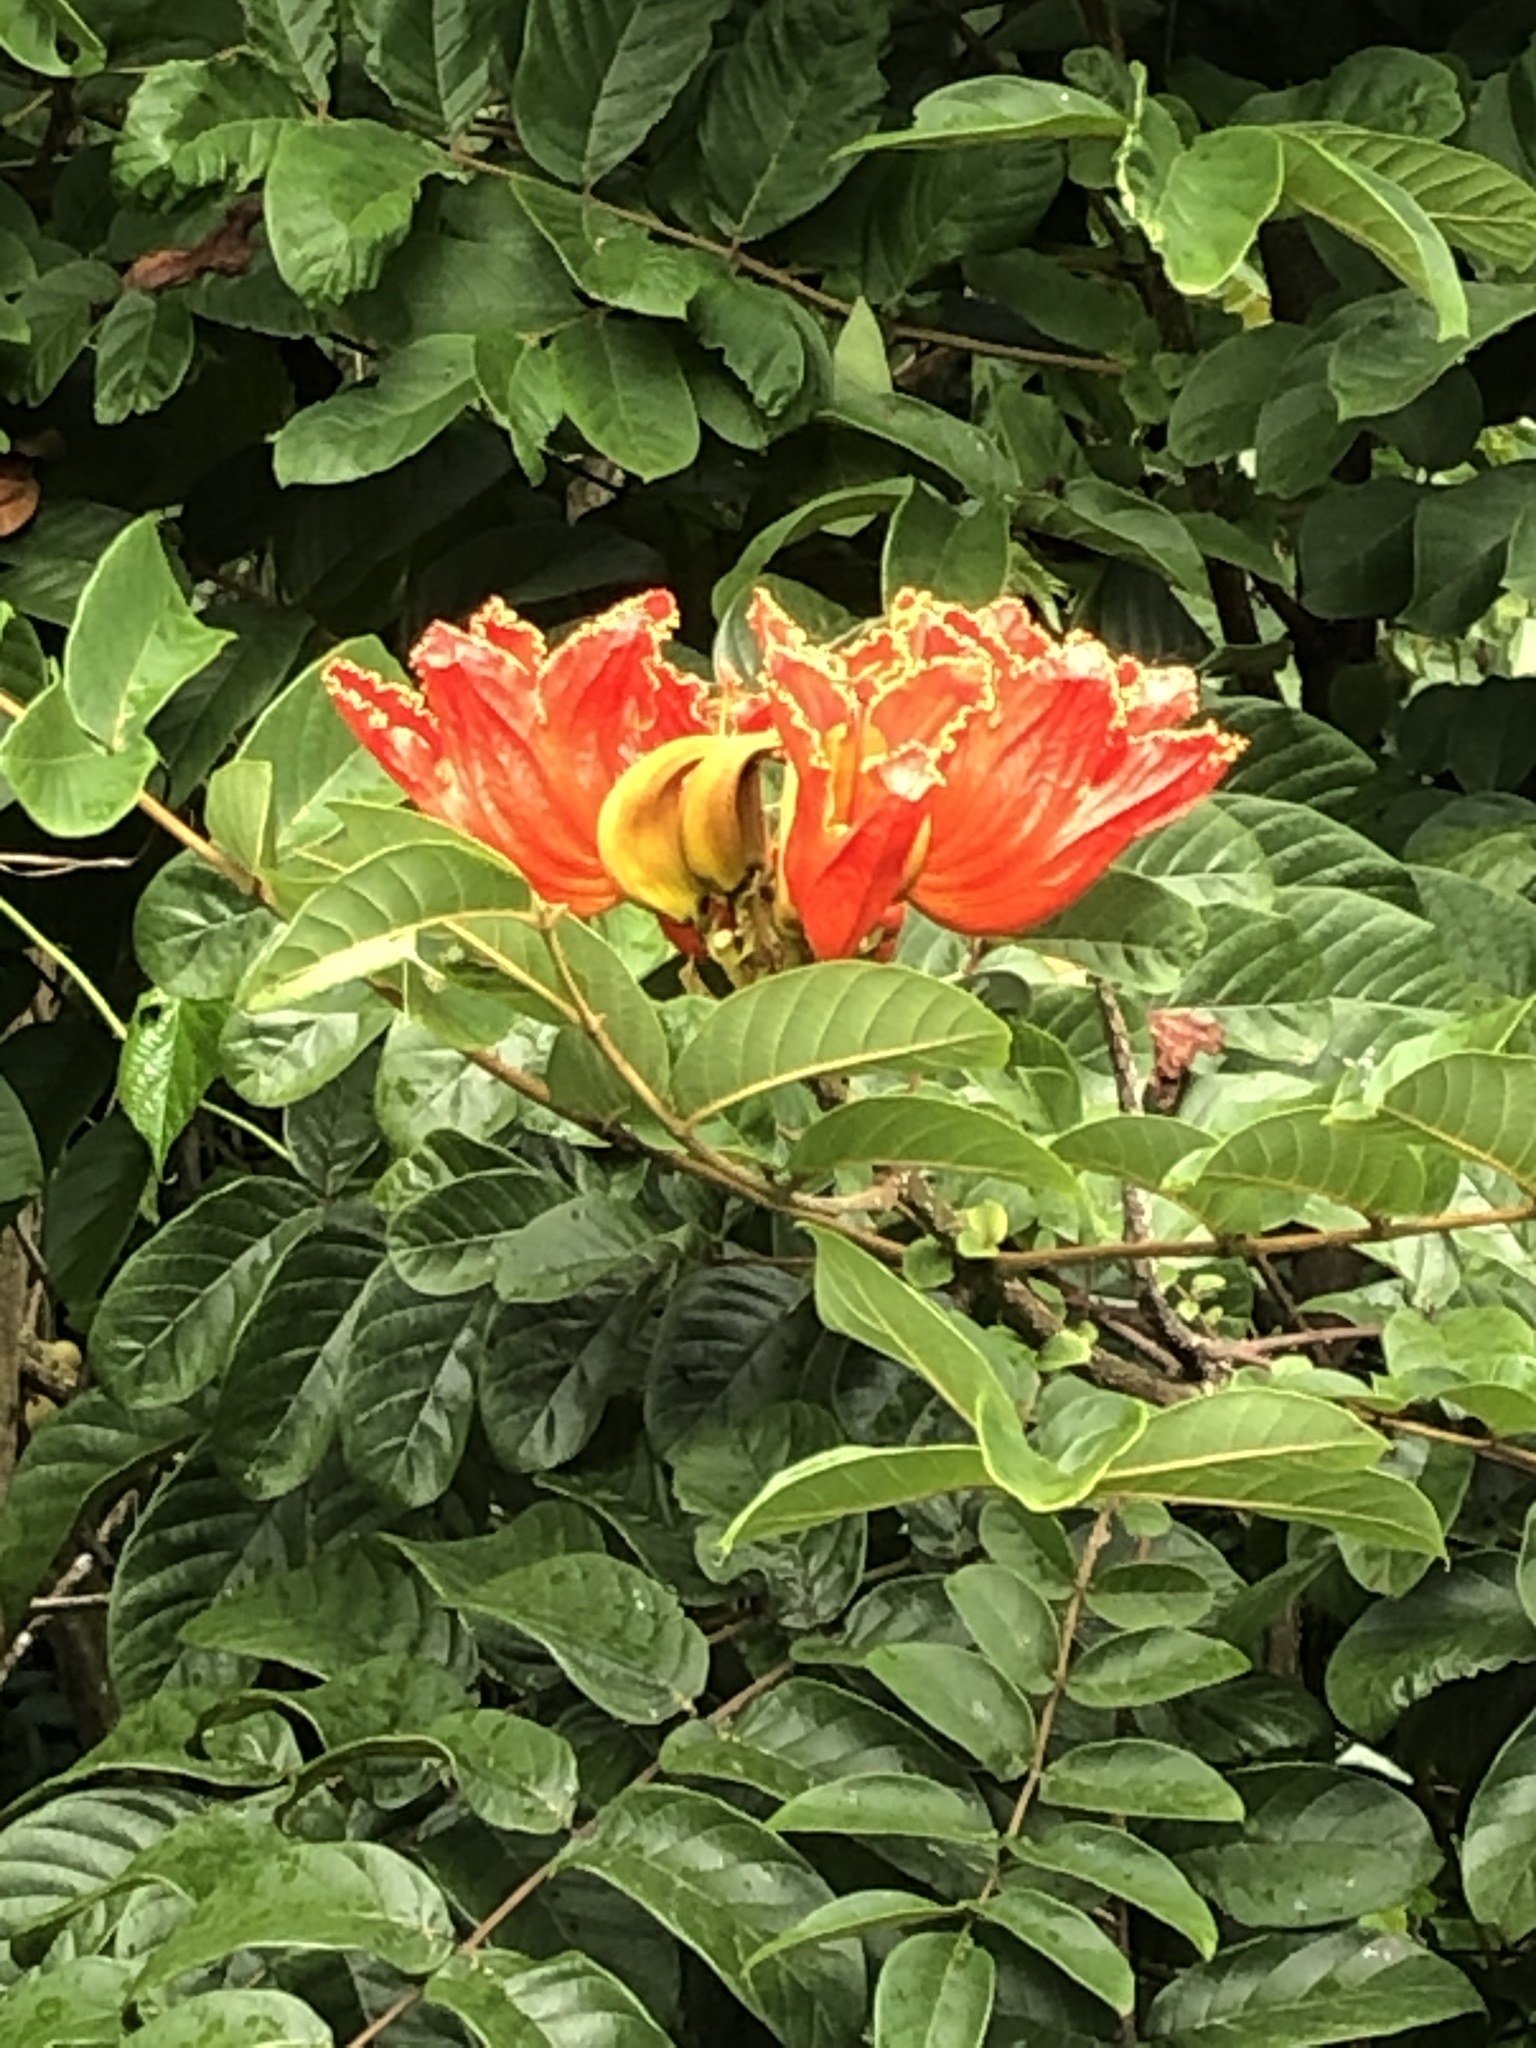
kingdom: Plantae
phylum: Tracheophyta
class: Magnoliopsida
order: Lamiales
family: Bignoniaceae
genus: Spathodea
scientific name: Spathodea campanulata
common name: African tuliptree
